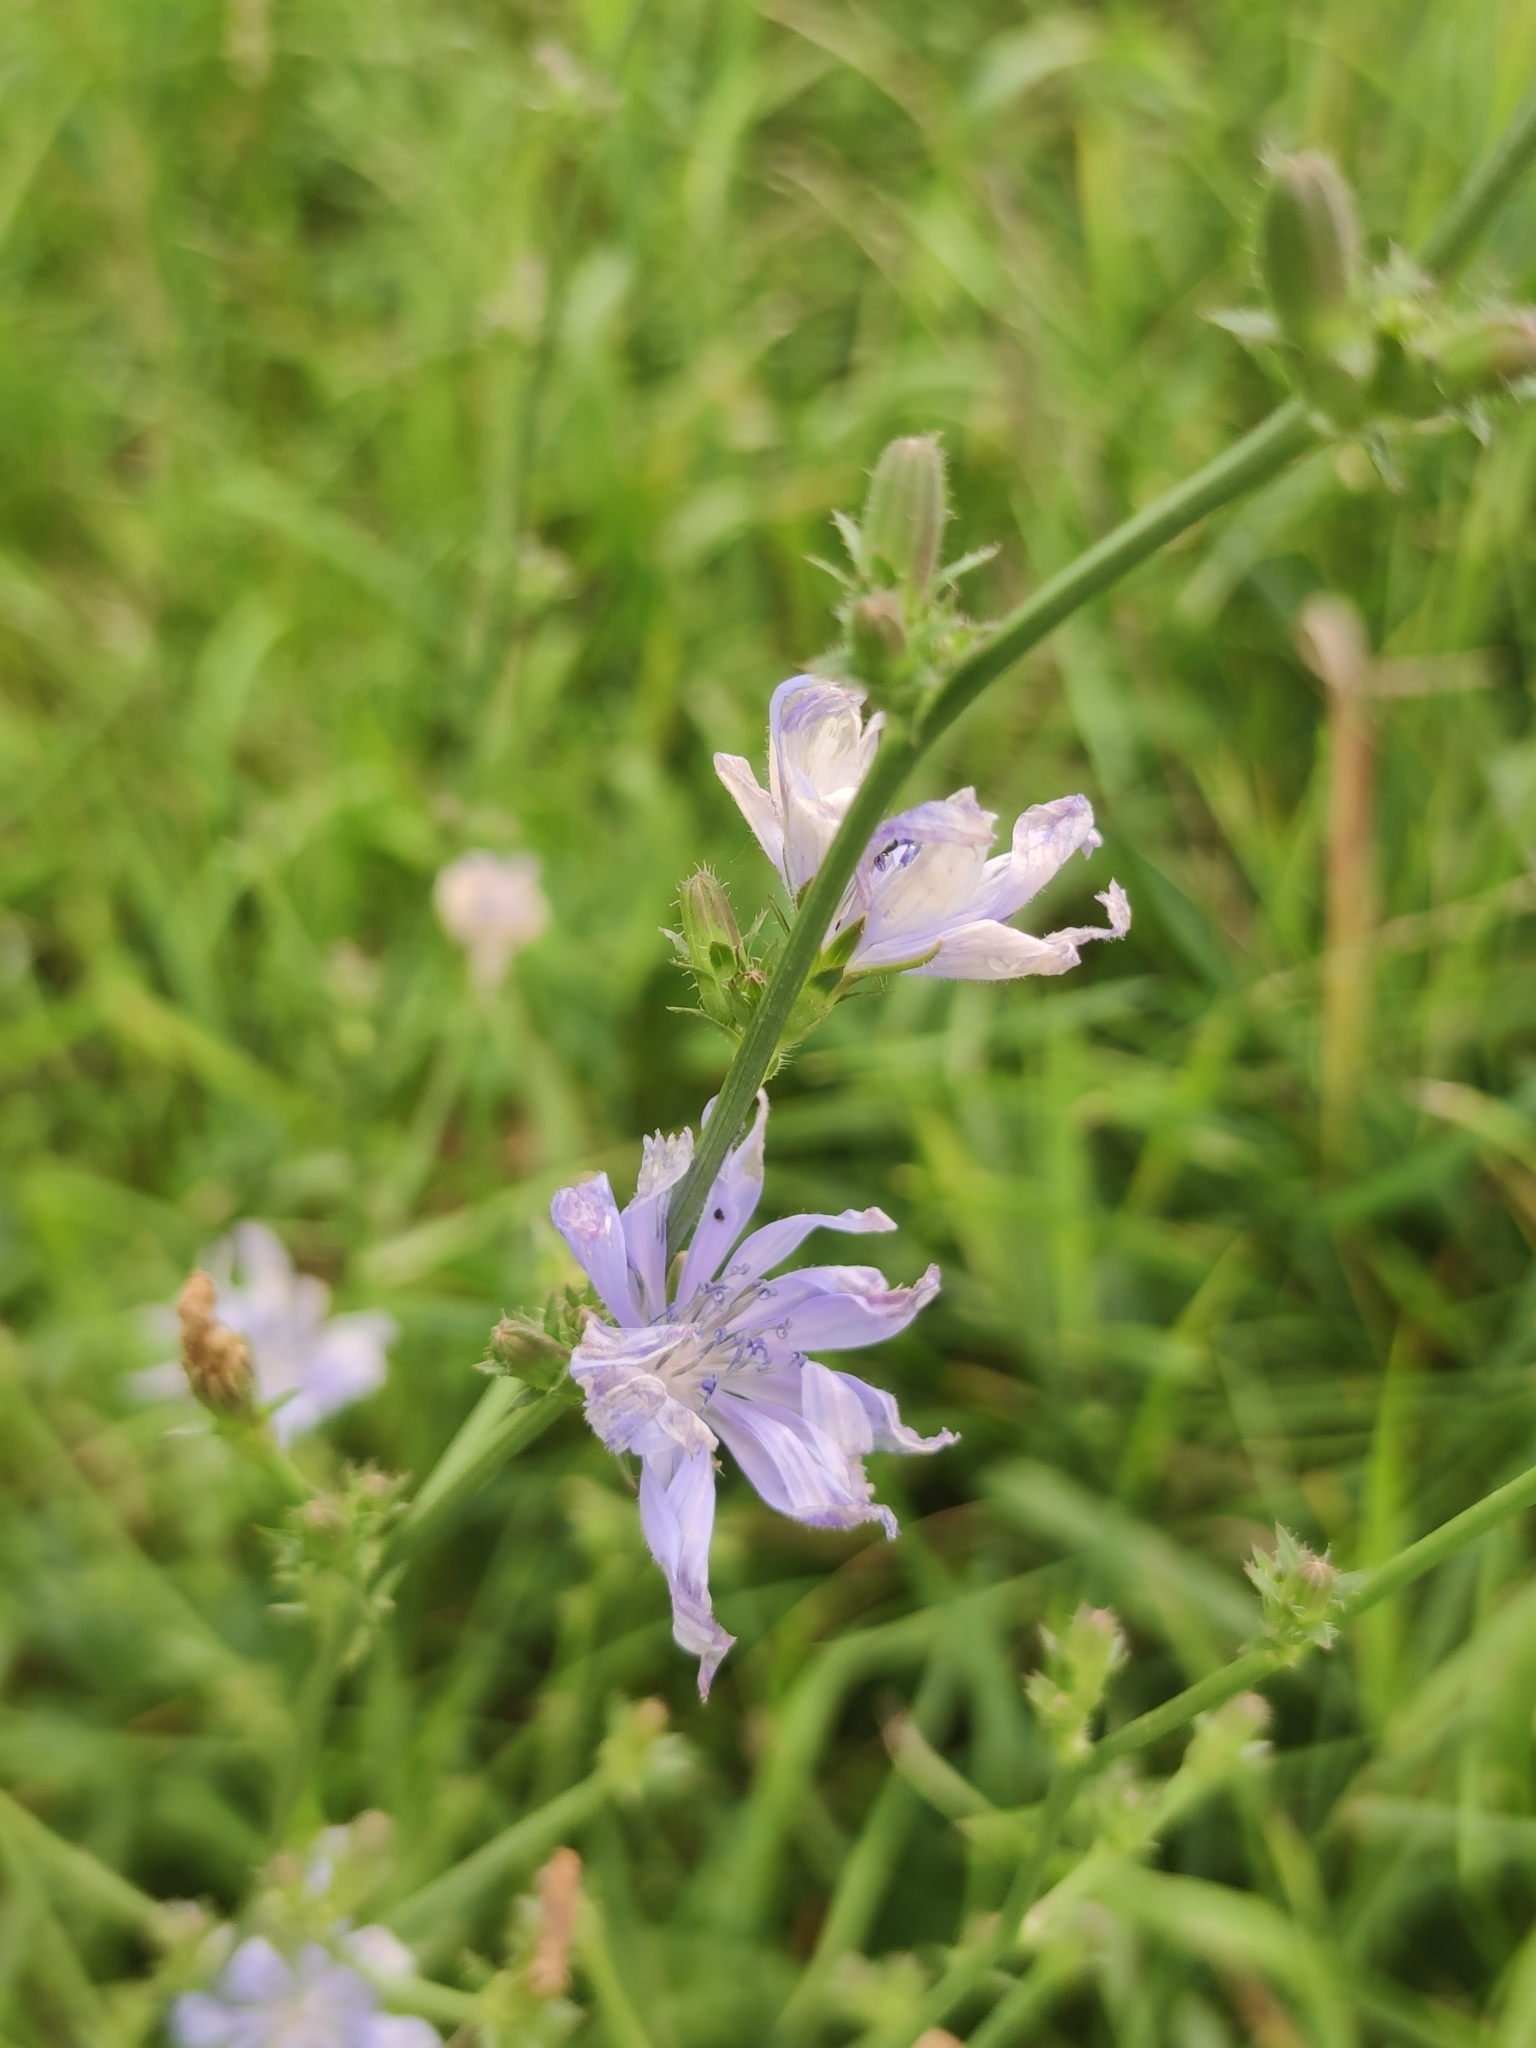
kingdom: Plantae
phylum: Tracheophyta
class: Magnoliopsida
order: Asterales
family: Asteraceae
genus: Cichorium
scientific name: Cichorium intybus
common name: Chicory
